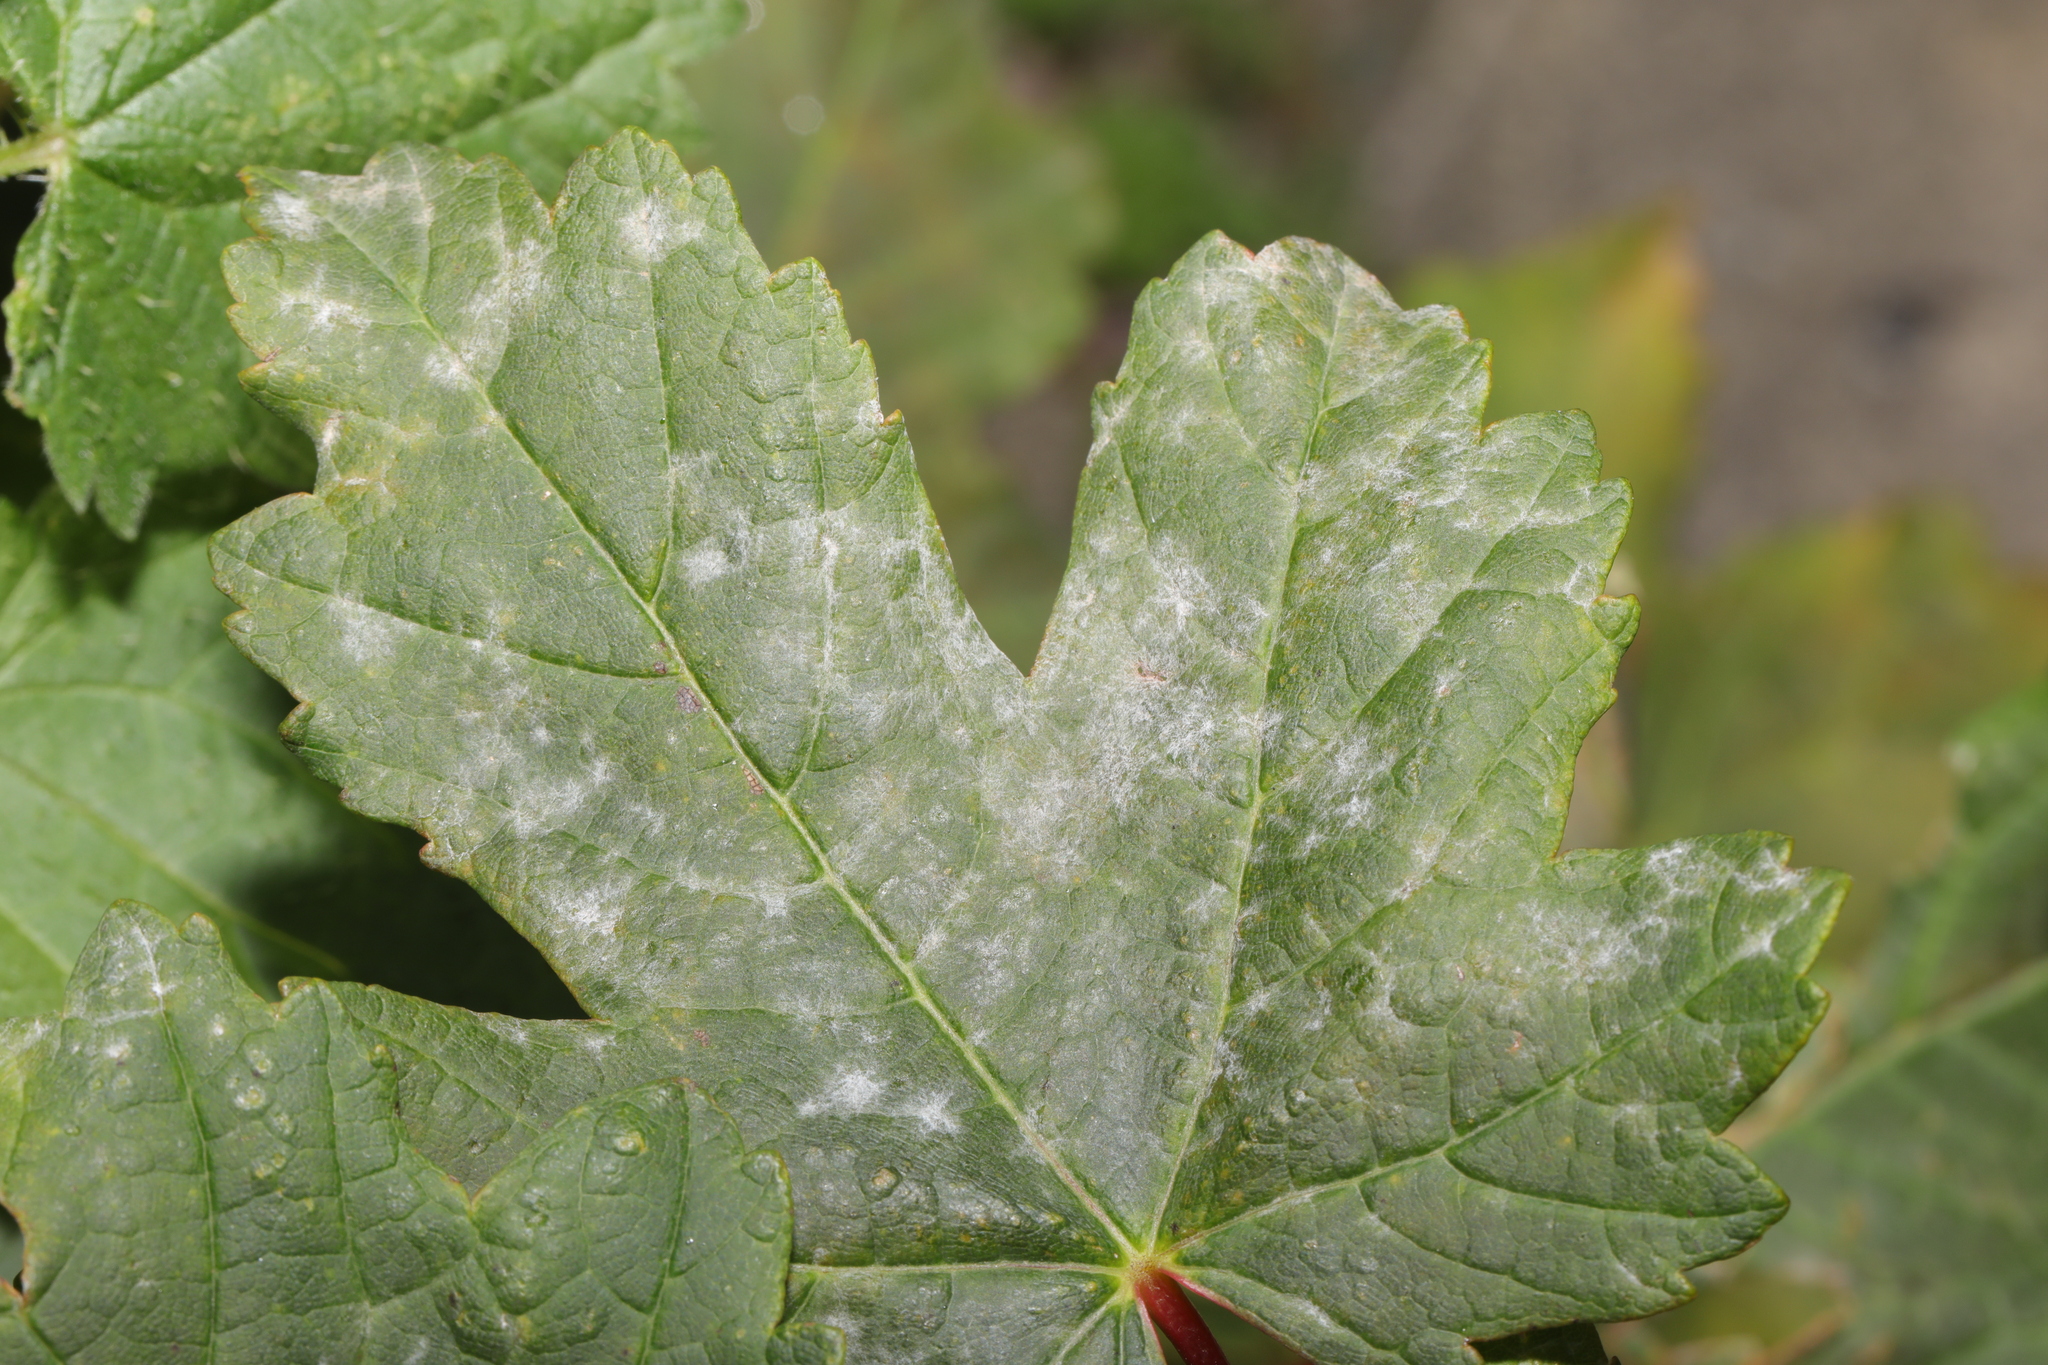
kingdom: Fungi
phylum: Ascomycota
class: Leotiomycetes
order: Helotiales
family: Erysiphaceae
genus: Sawadaea
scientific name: Sawadaea bicornis
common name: Maple mildew
